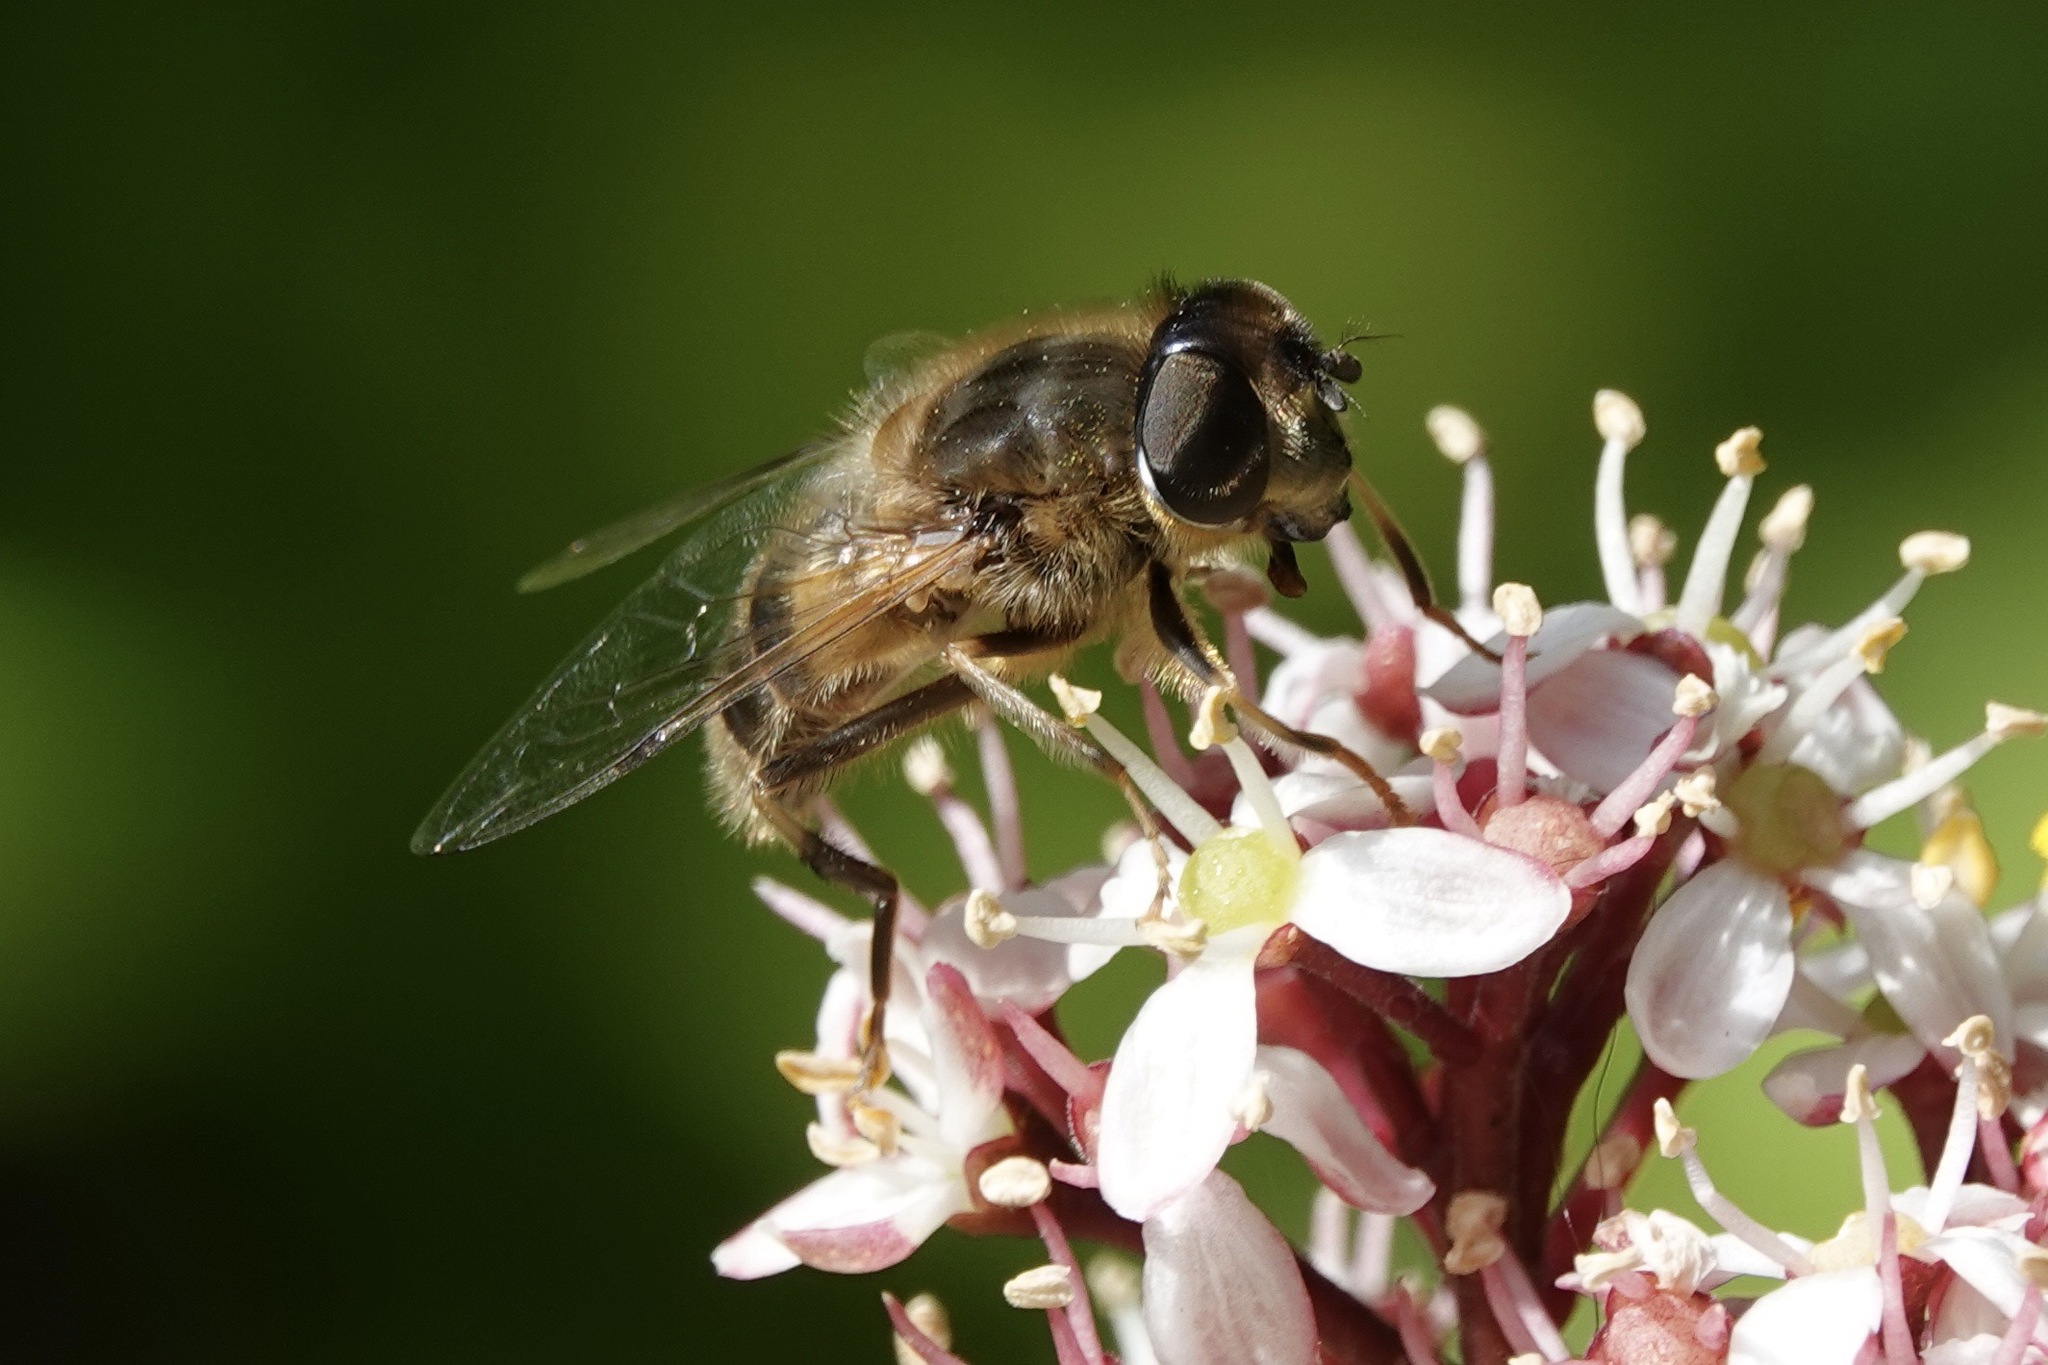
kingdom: Animalia
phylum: Arthropoda
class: Insecta
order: Diptera
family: Syrphidae
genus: Eristalis
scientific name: Eristalis pertinax
